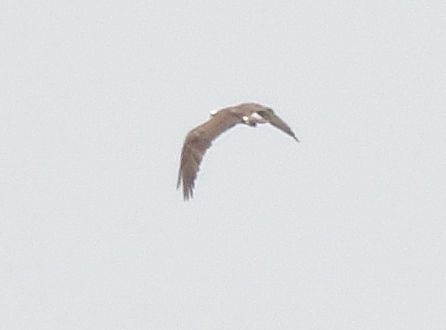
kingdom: Animalia
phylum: Chordata
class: Aves
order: Accipitriformes
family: Accipitridae
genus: Haliaeetus
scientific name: Haliaeetus leucocephalus
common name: Bald eagle
